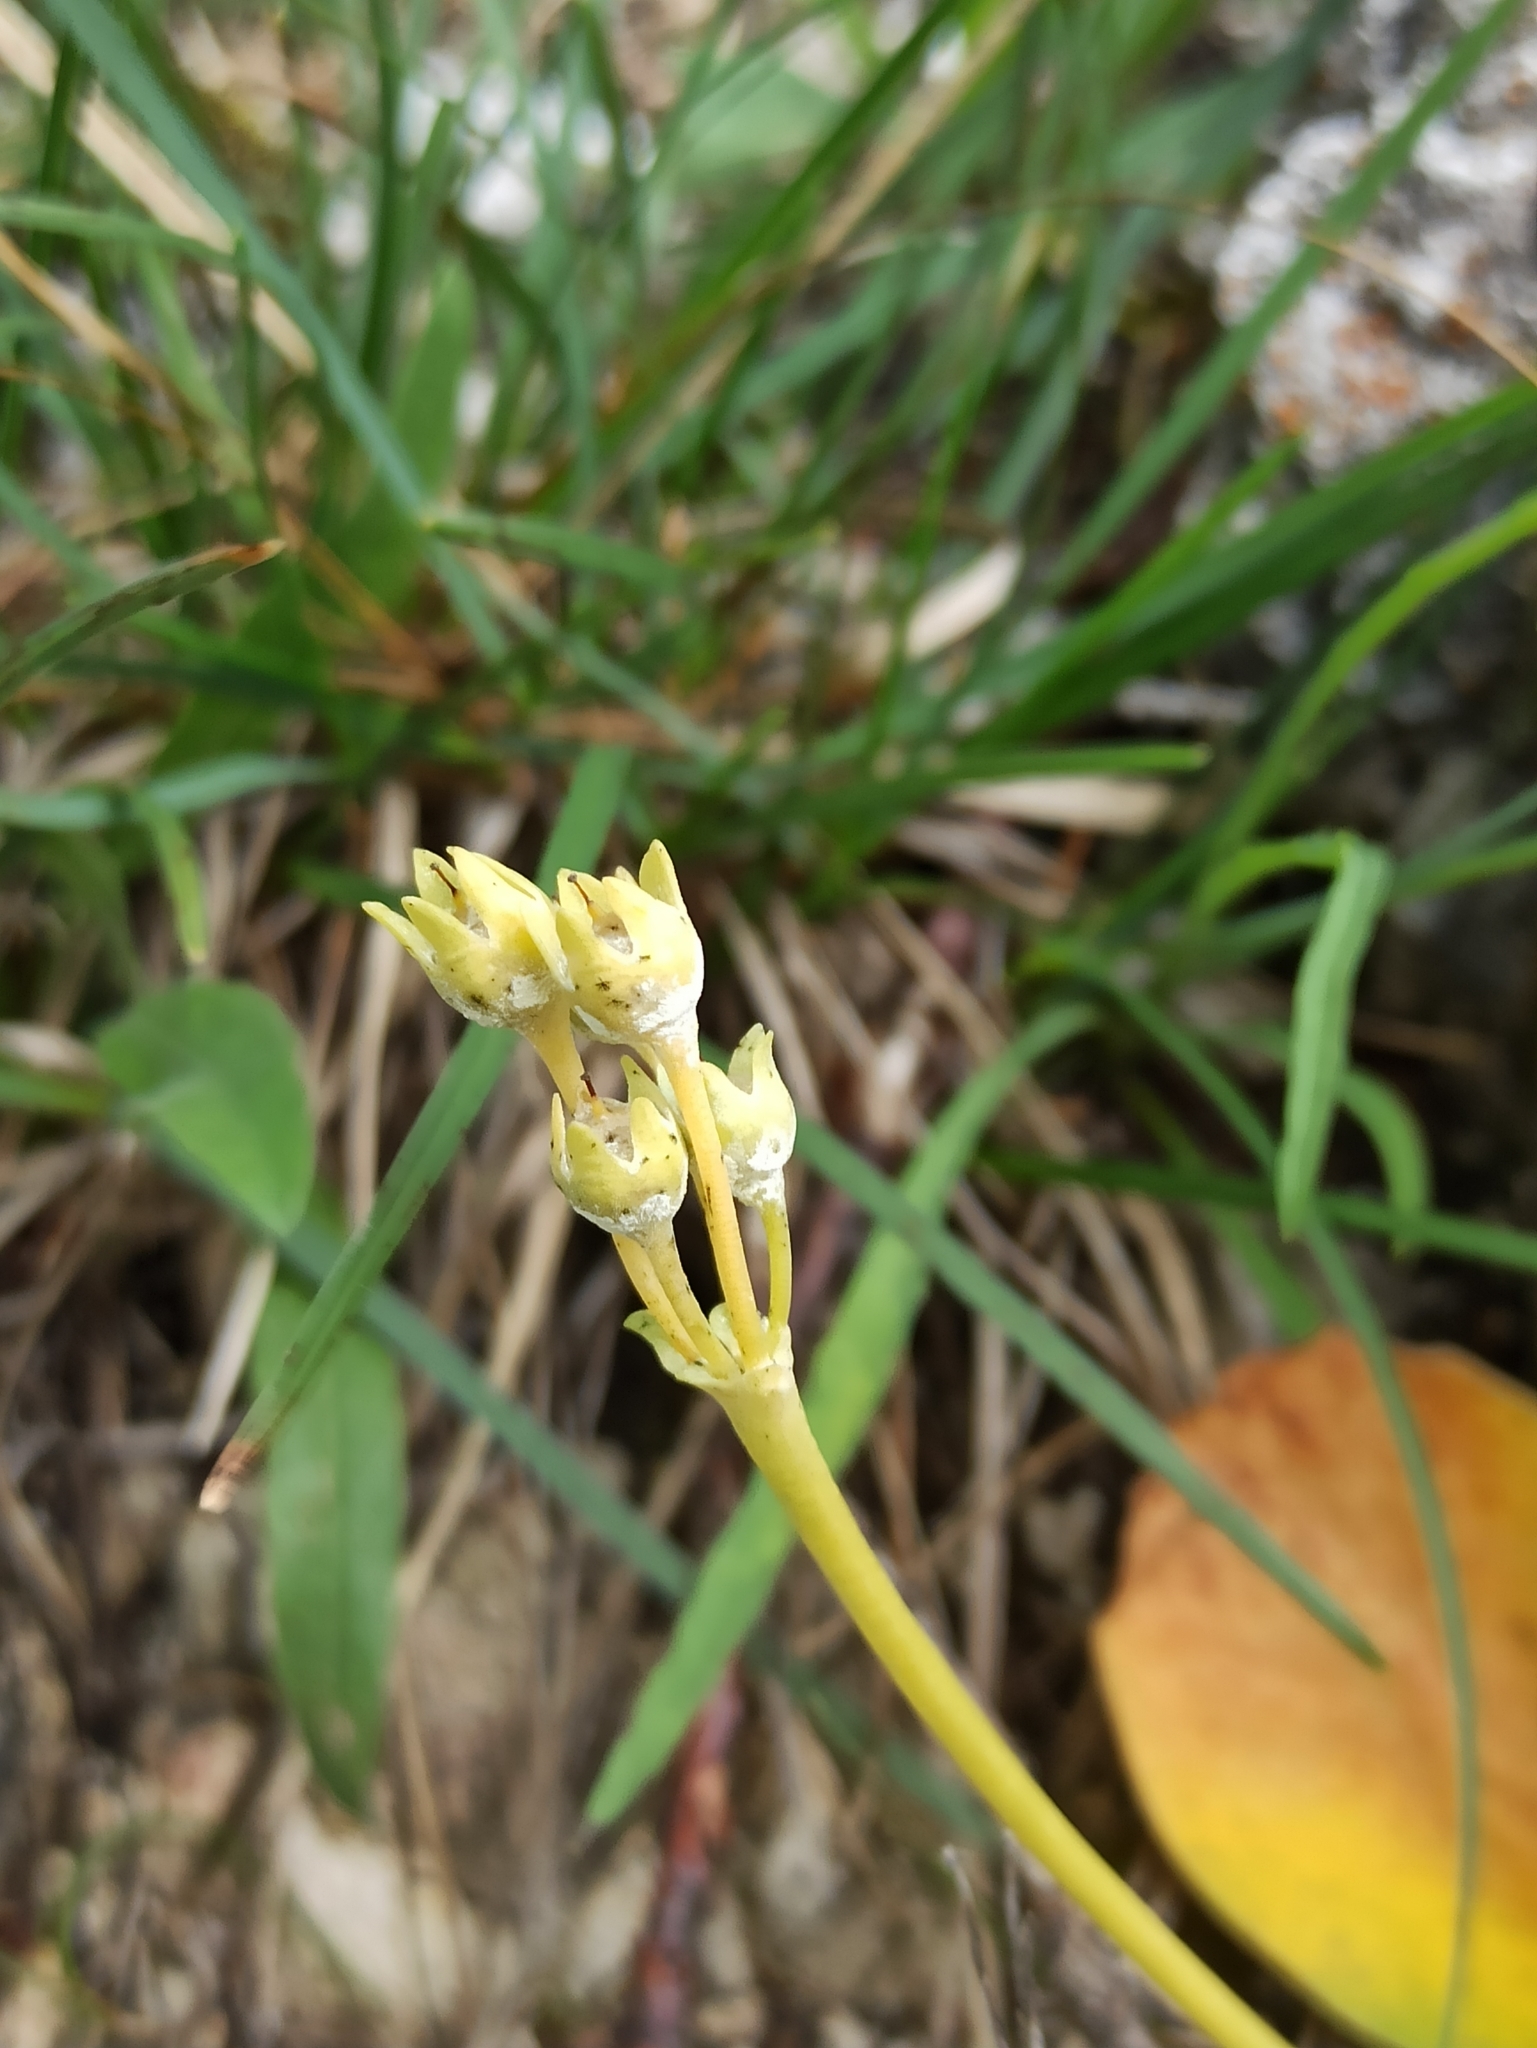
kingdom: Plantae
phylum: Tracheophyta
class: Magnoliopsida
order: Ericales
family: Primulaceae
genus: Primula
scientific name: Primula auricula
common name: Auricula
